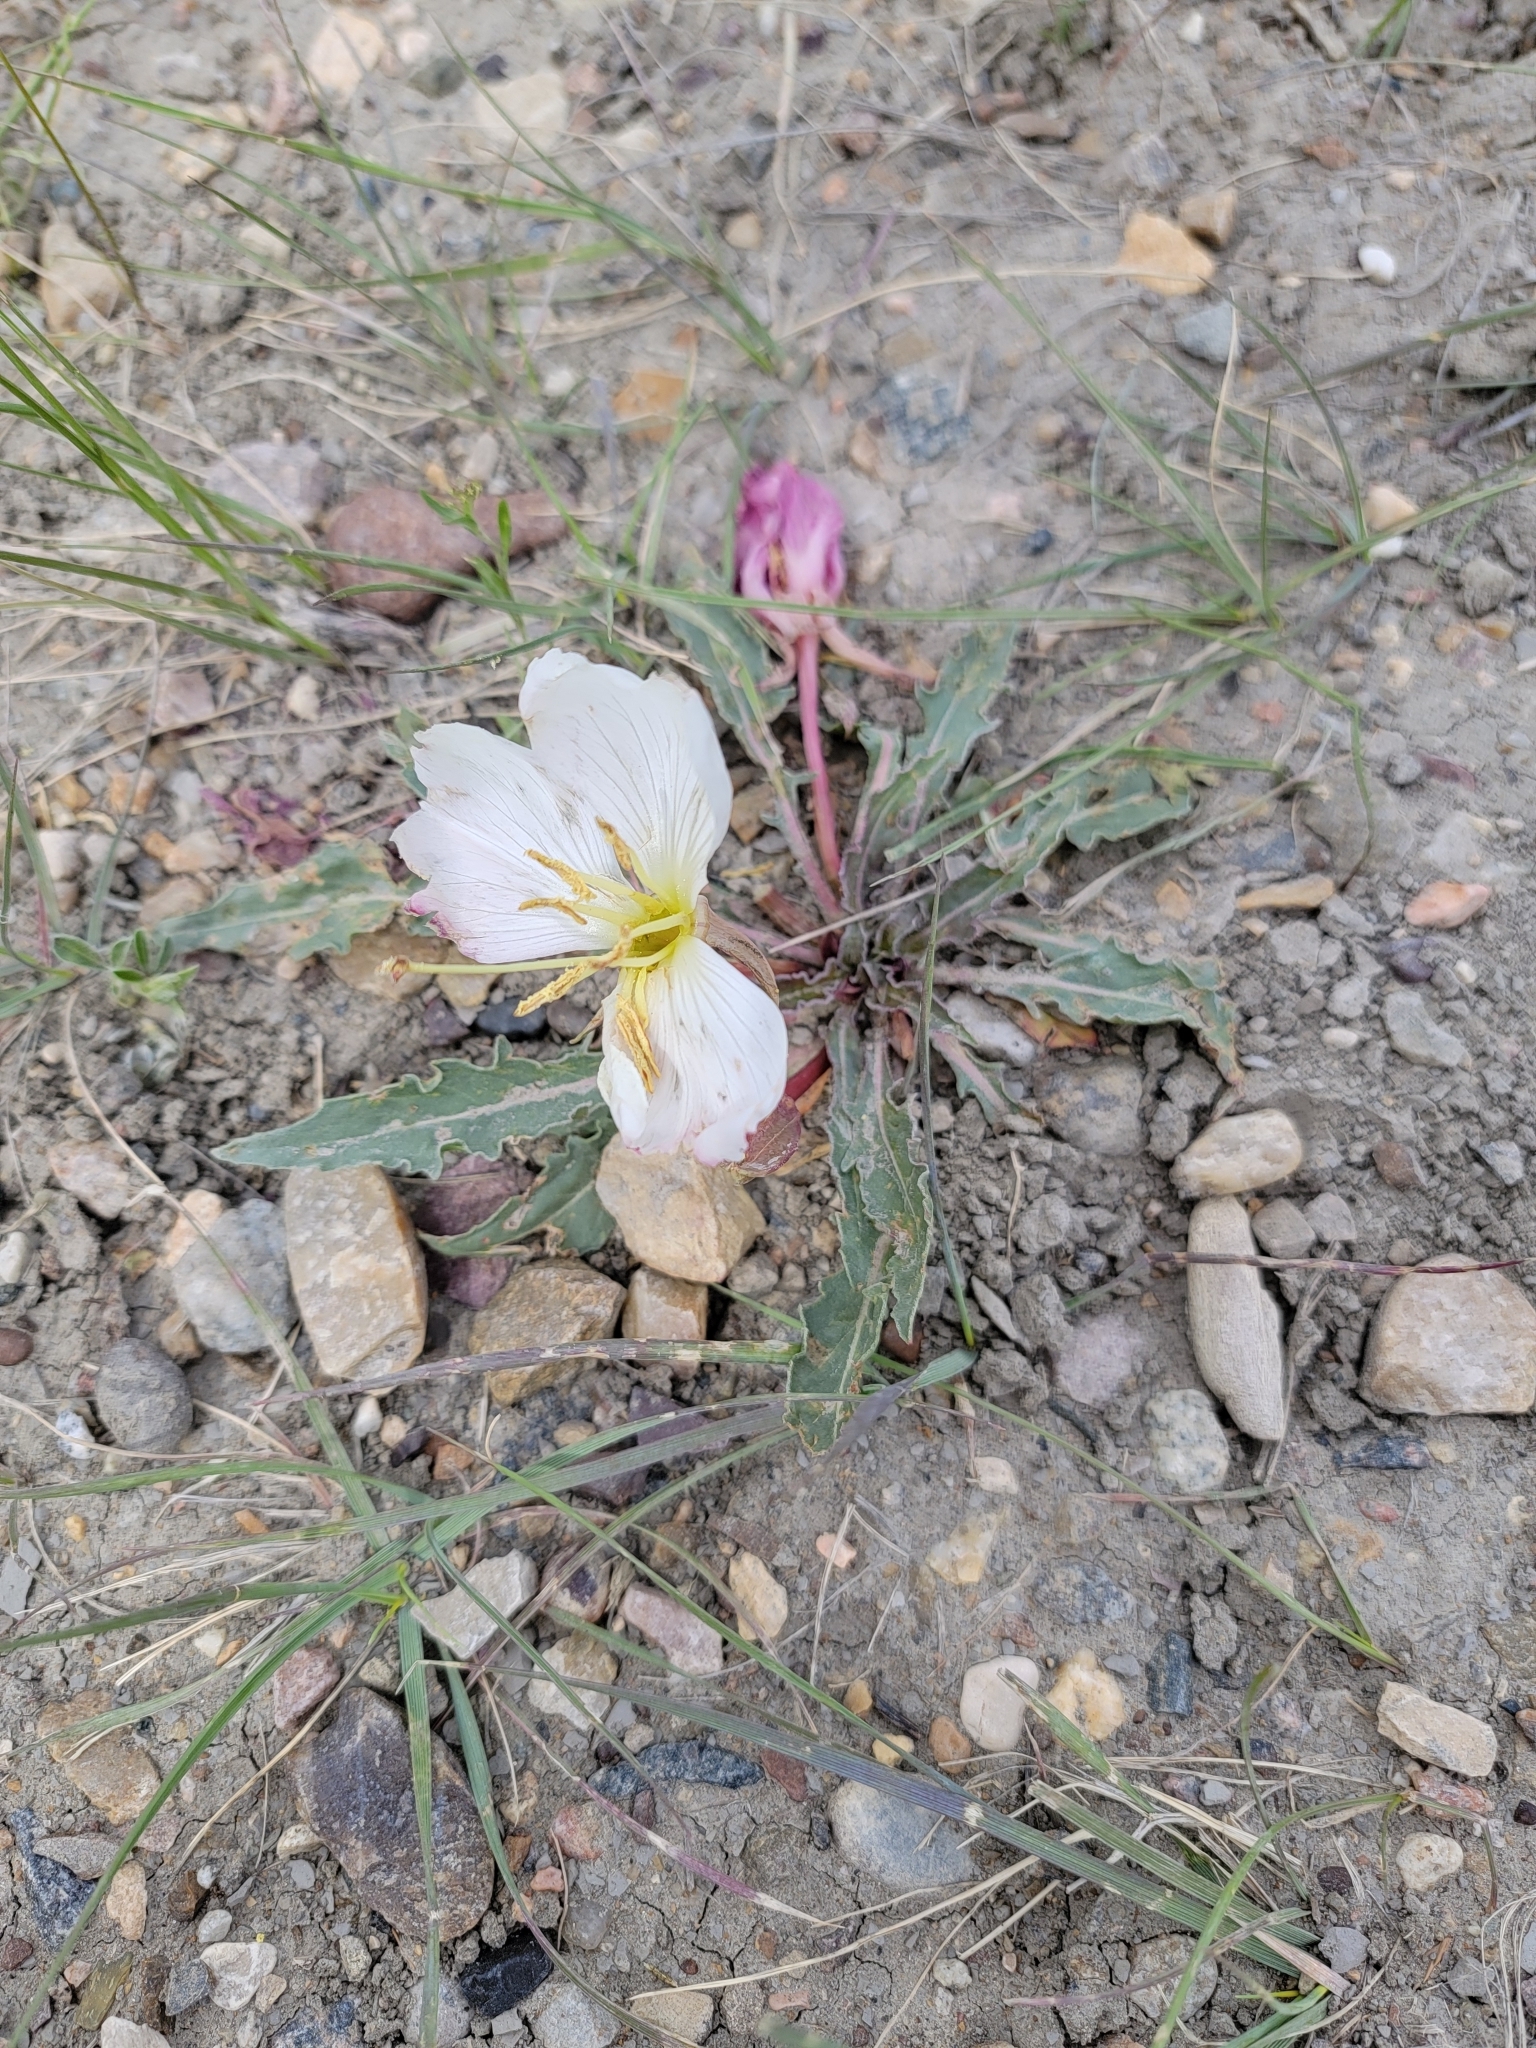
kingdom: Plantae
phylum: Tracheophyta
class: Magnoliopsida
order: Myrtales
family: Onagraceae
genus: Oenothera
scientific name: Oenothera cespitosa
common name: Tufted evening-primrose
